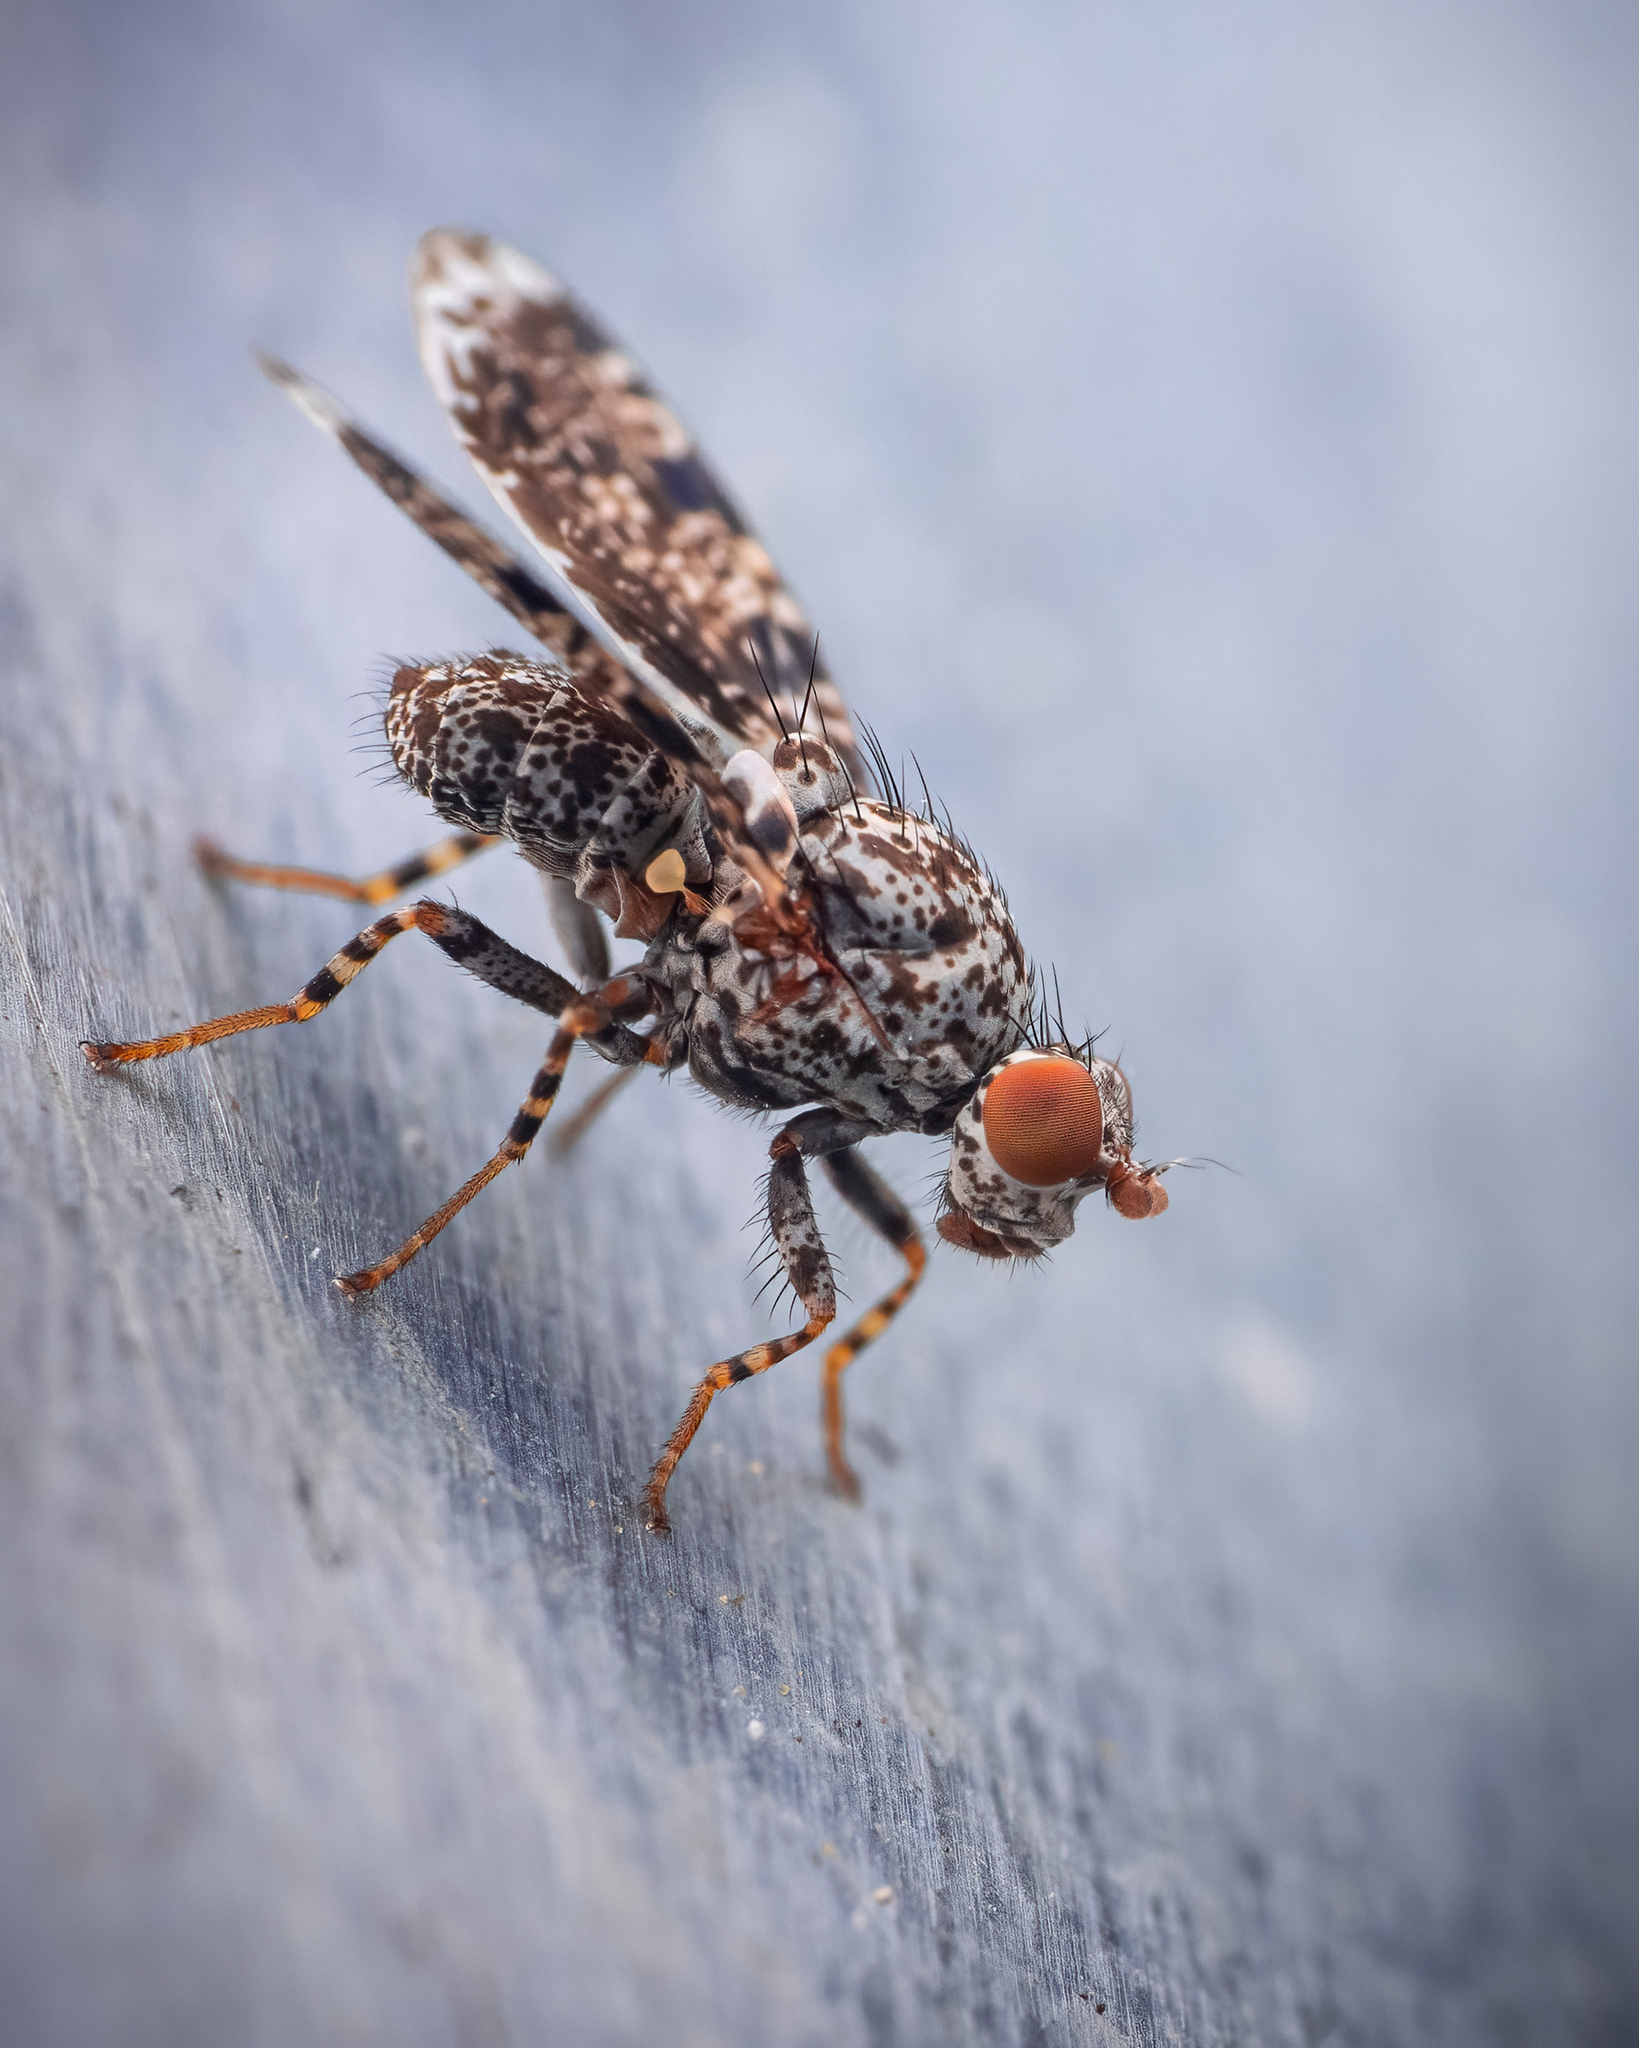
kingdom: Animalia
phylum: Arthropoda
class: Insecta
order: Diptera
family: Ulidiidae
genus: Callopistromyia
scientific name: Callopistromyia annulipes
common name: Peacock fly
